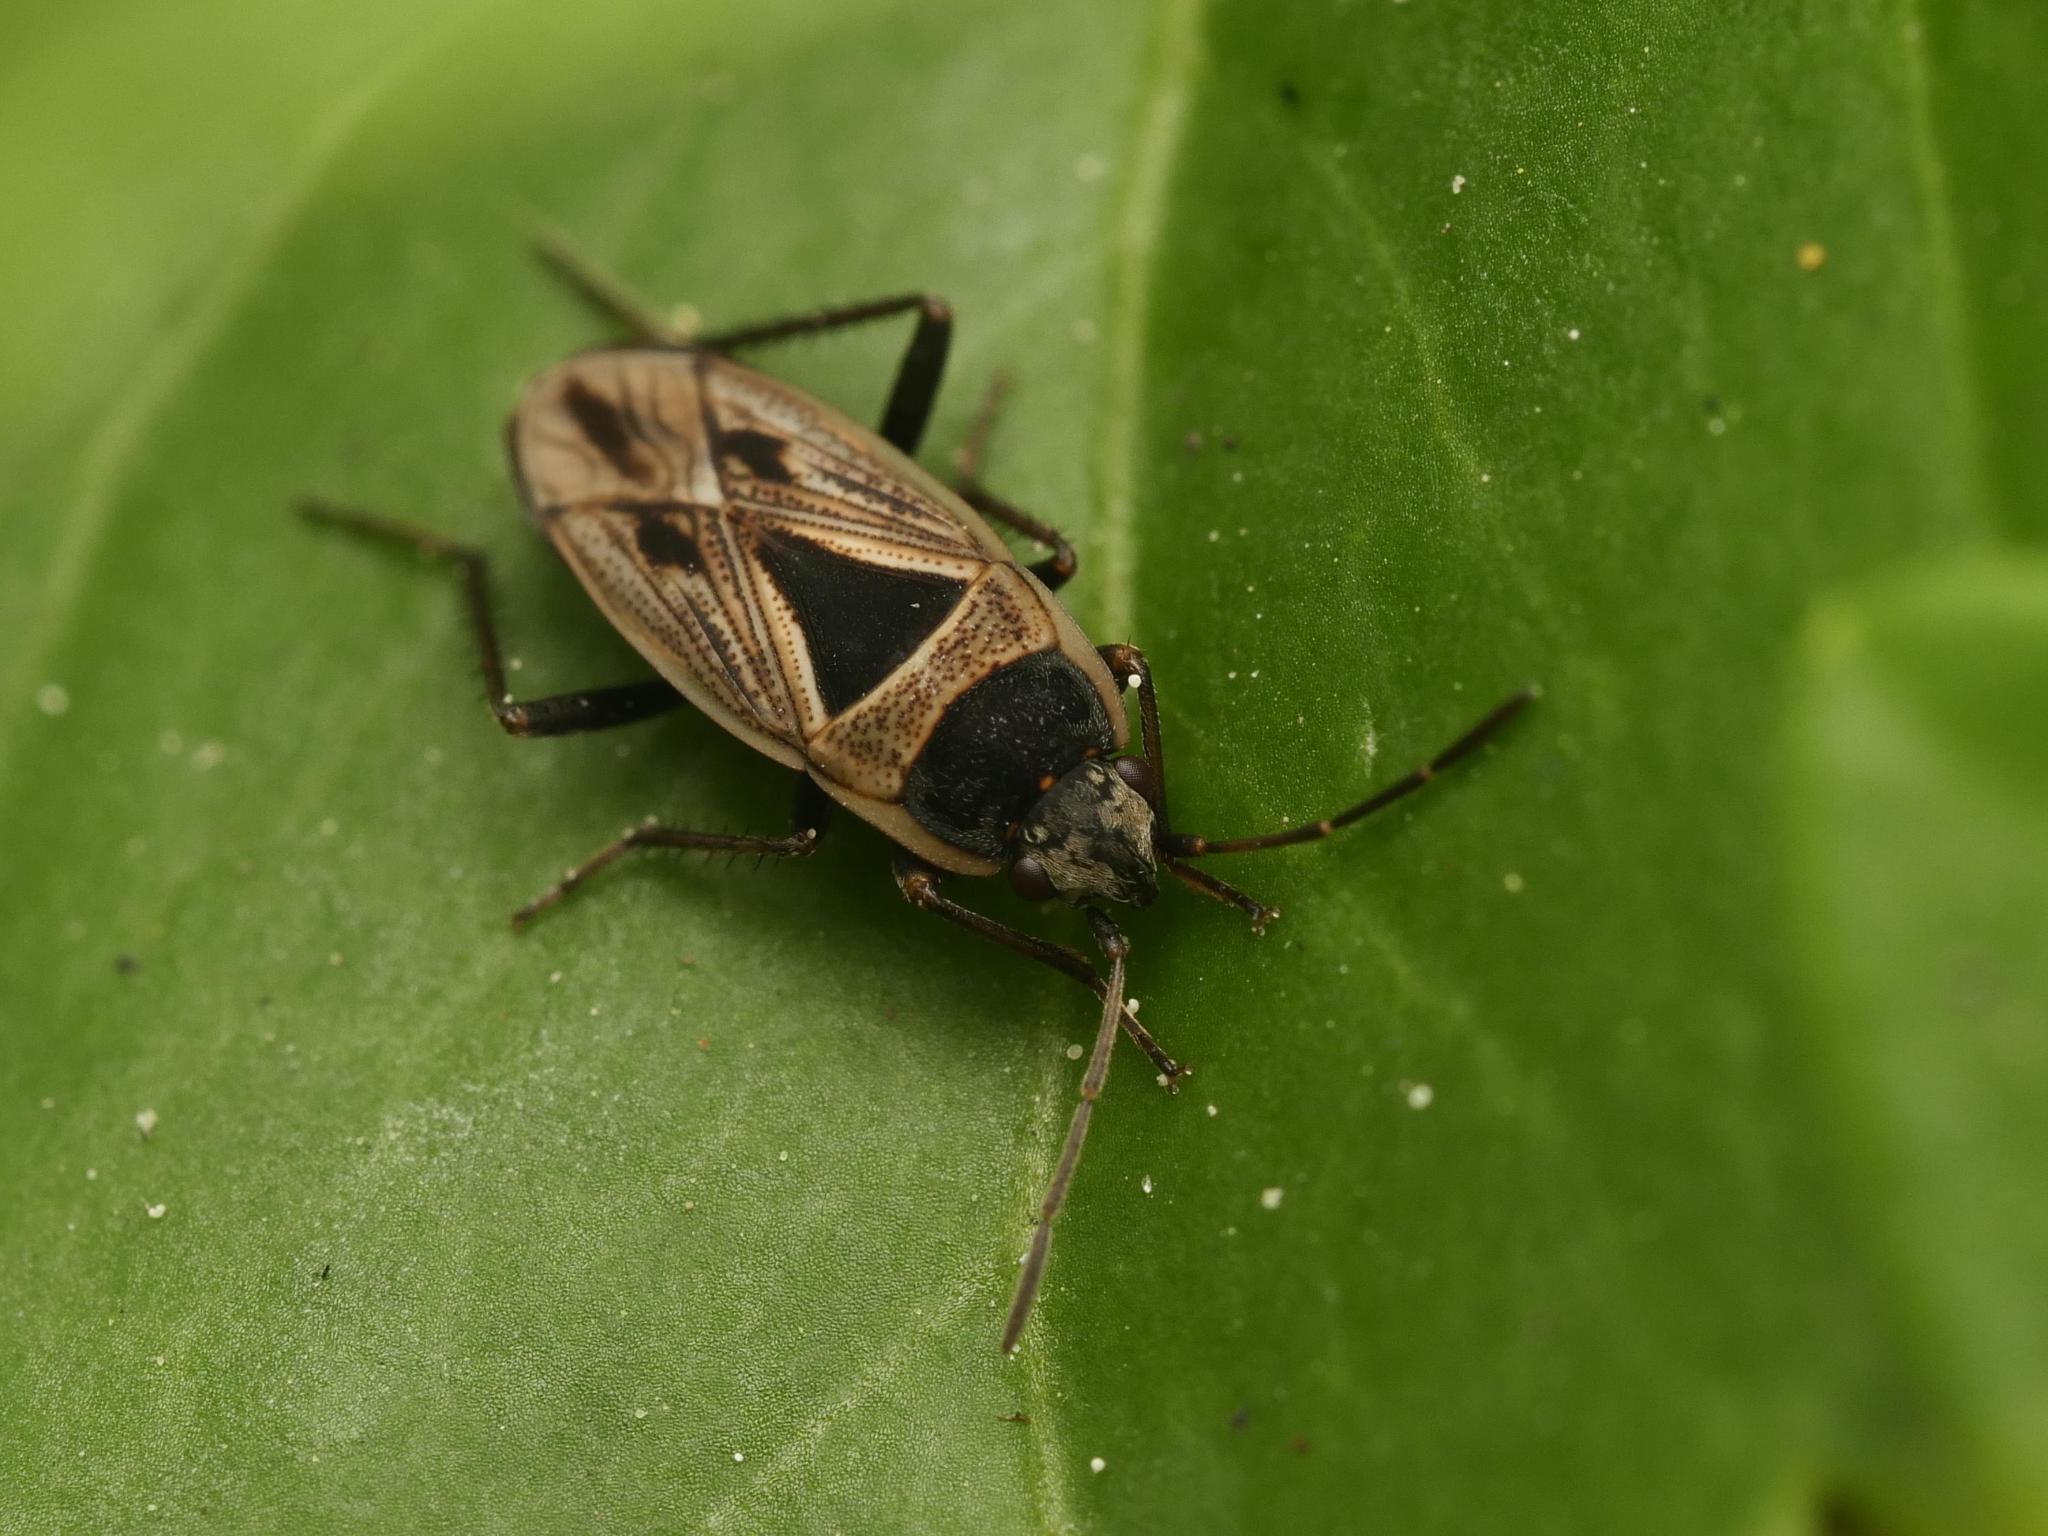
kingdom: Animalia
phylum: Arthropoda
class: Insecta
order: Hemiptera
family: Rhyparochromidae
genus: Xanthochilus
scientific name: Xanthochilus quadratus
